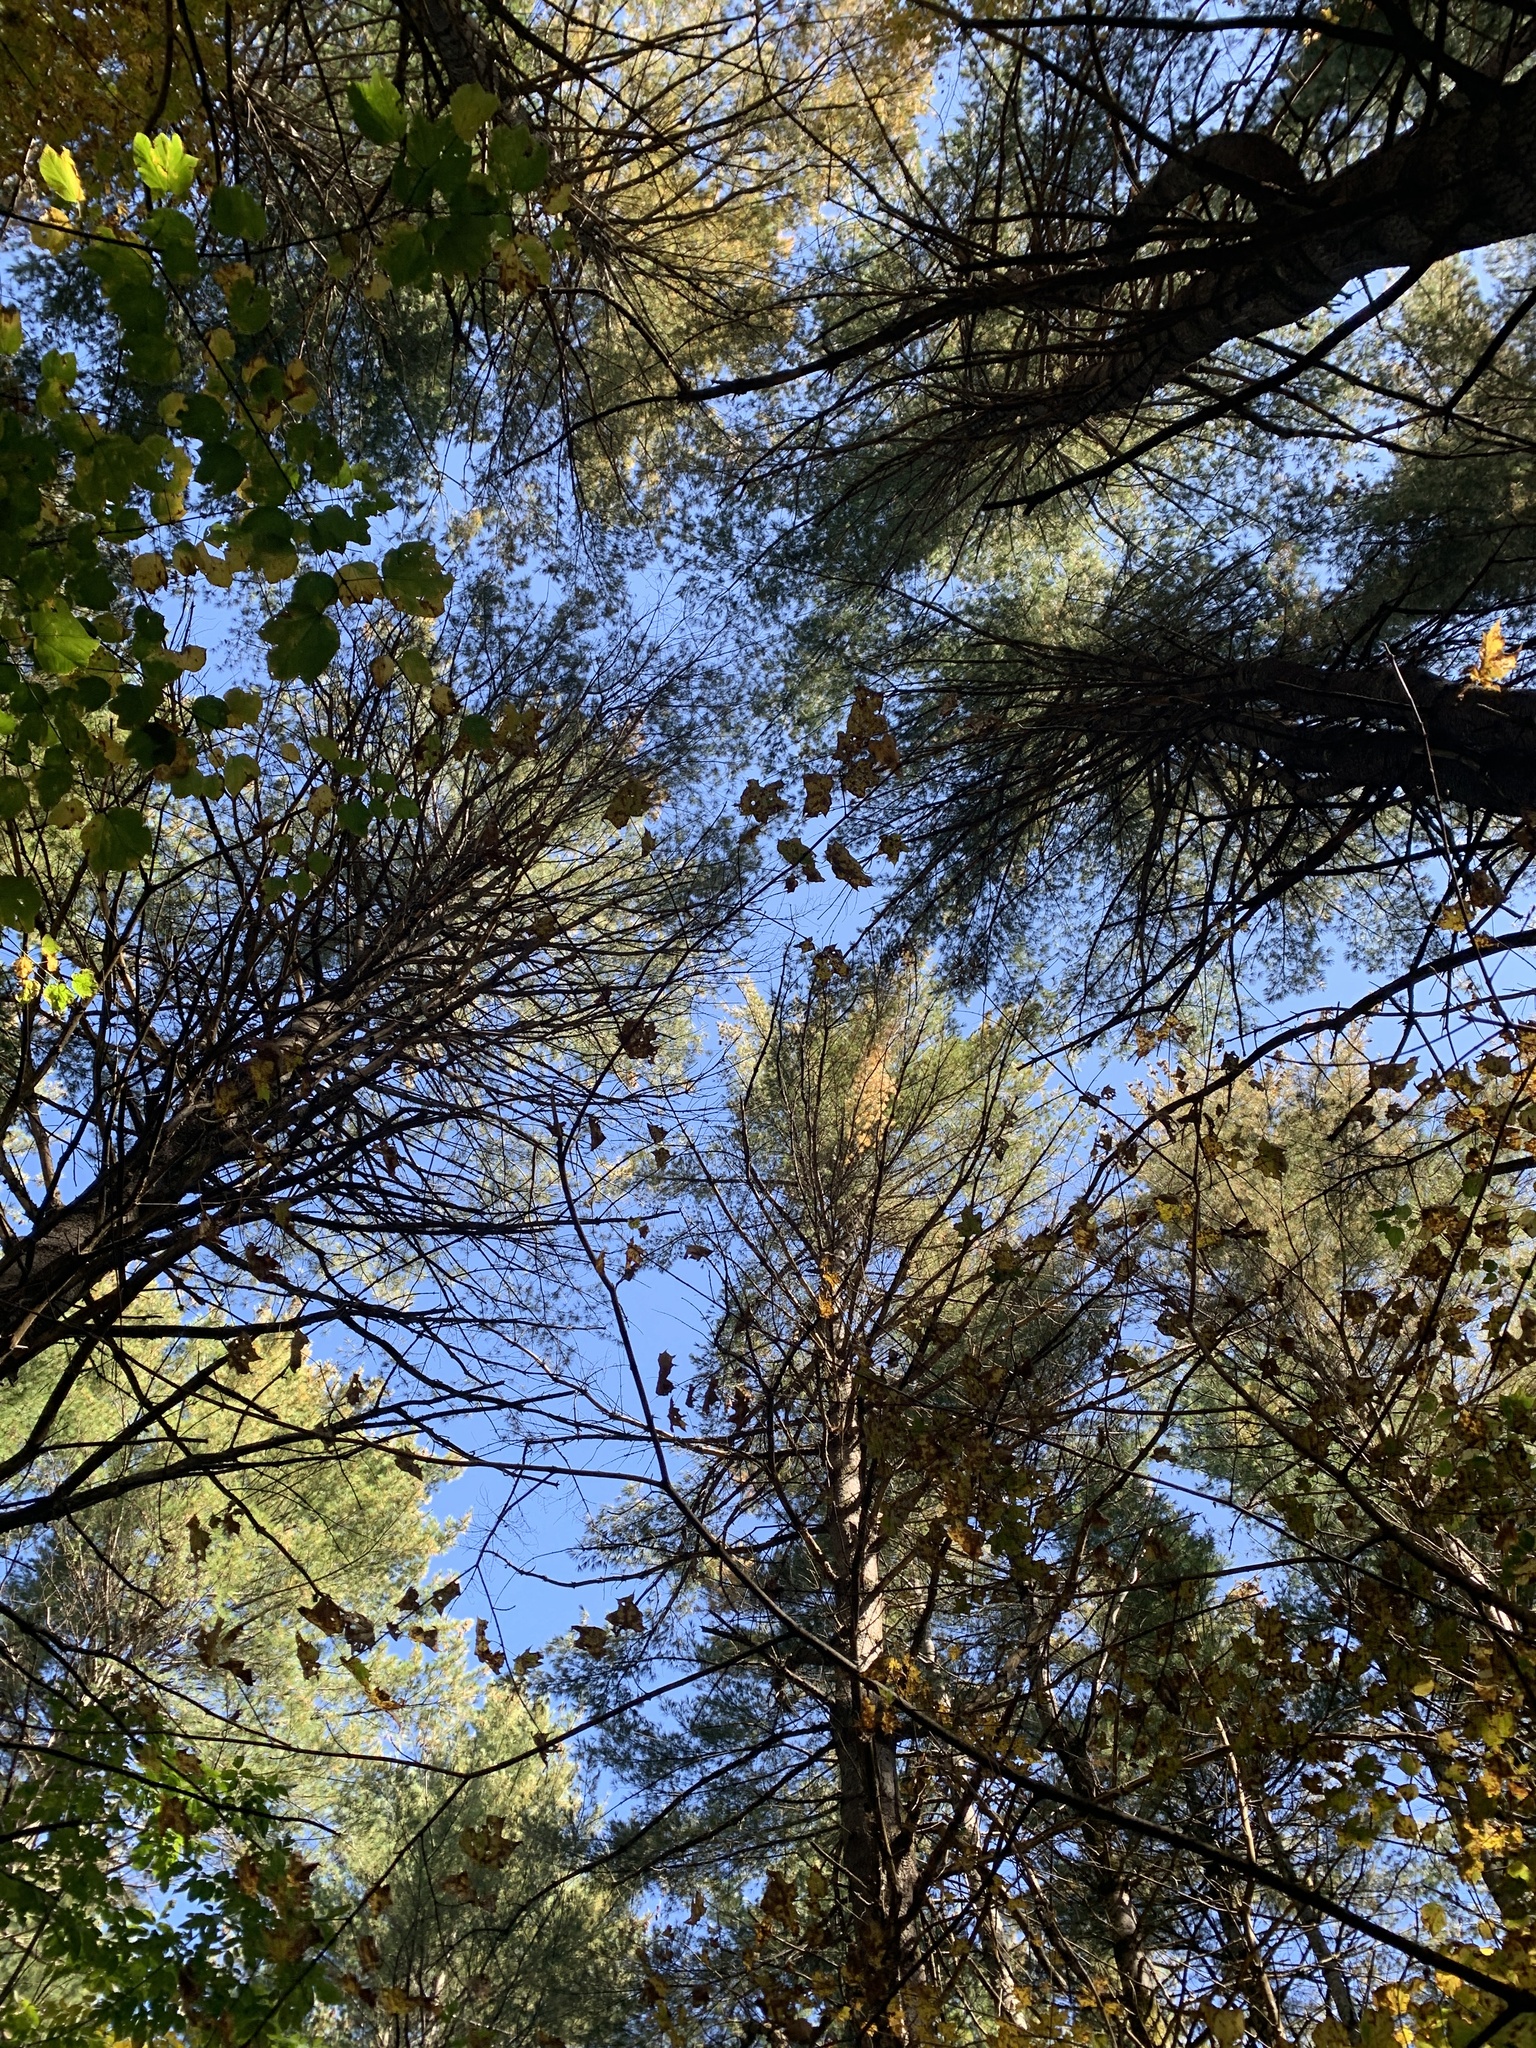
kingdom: Plantae
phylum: Tracheophyta
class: Pinopsida
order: Pinales
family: Pinaceae
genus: Pinus
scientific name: Pinus strobus
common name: Weymouth pine
